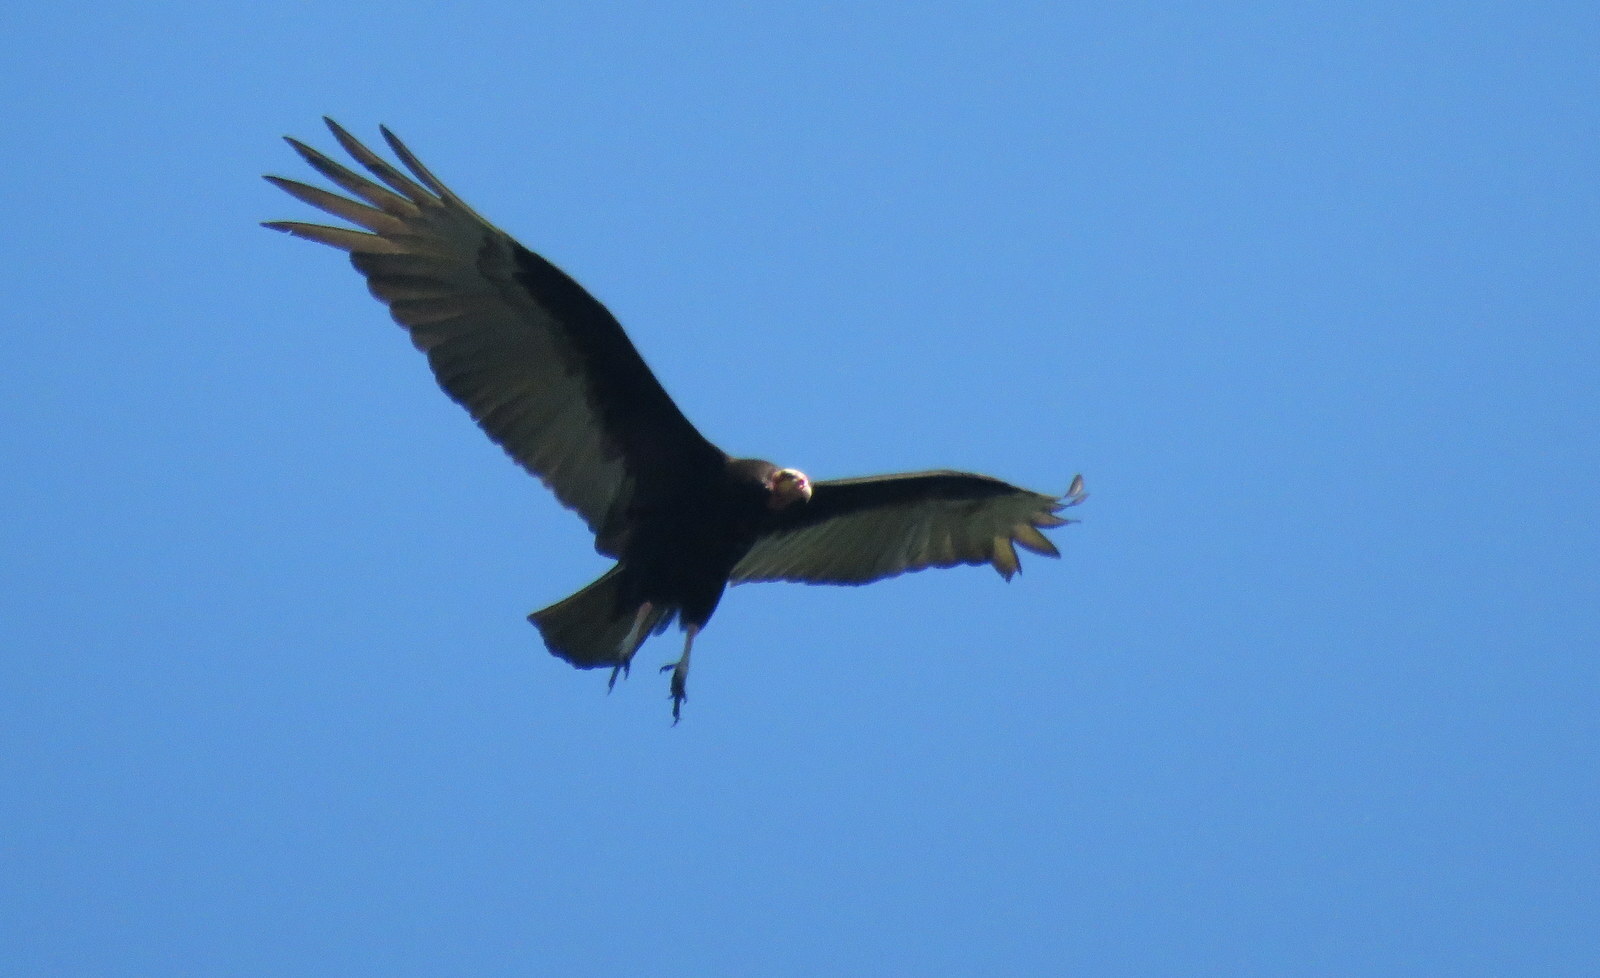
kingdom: Animalia
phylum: Chordata
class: Aves
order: Accipitriformes
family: Cathartidae
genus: Cathartes
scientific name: Cathartes burrovianus
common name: Lesser yellow-headed vulture
